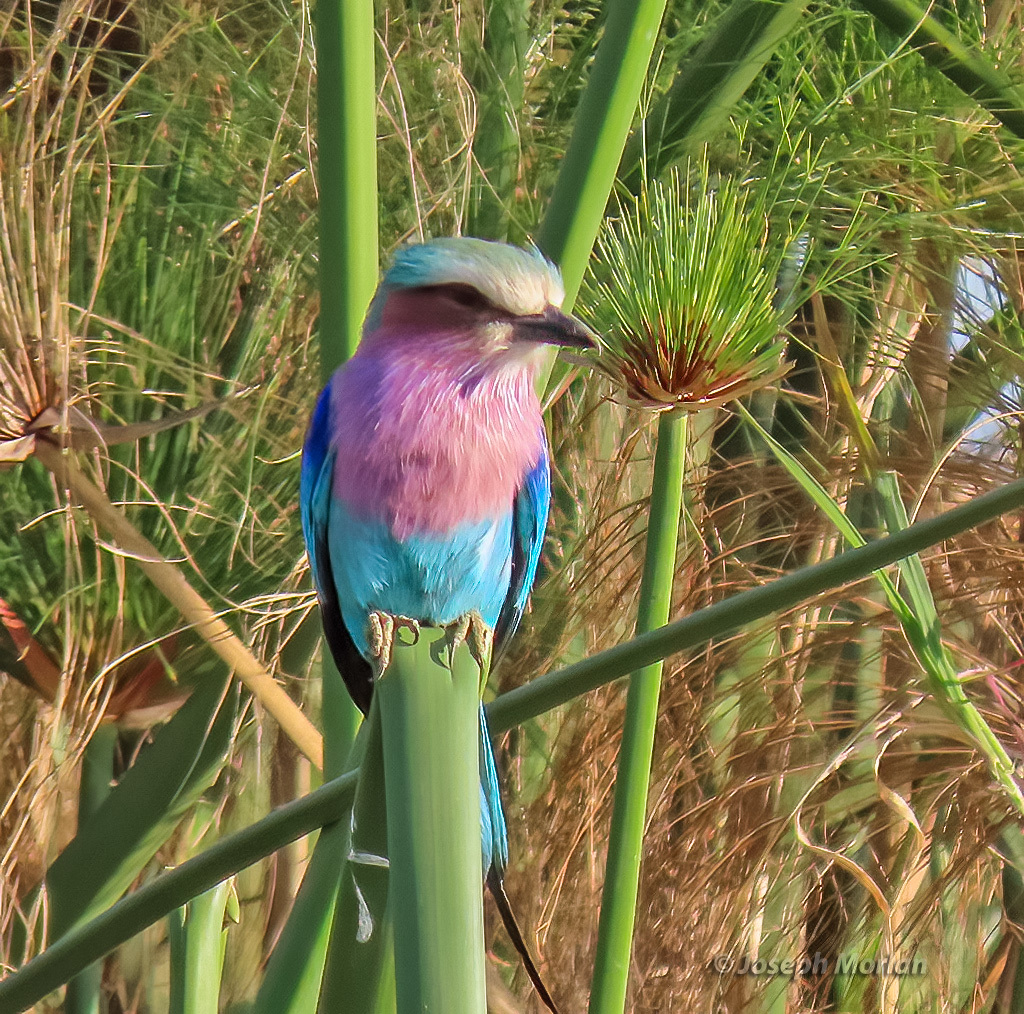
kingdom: Animalia
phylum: Chordata
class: Aves
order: Coraciiformes
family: Coraciidae
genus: Coracias
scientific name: Coracias caudatus
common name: Lilac-breasted roller
